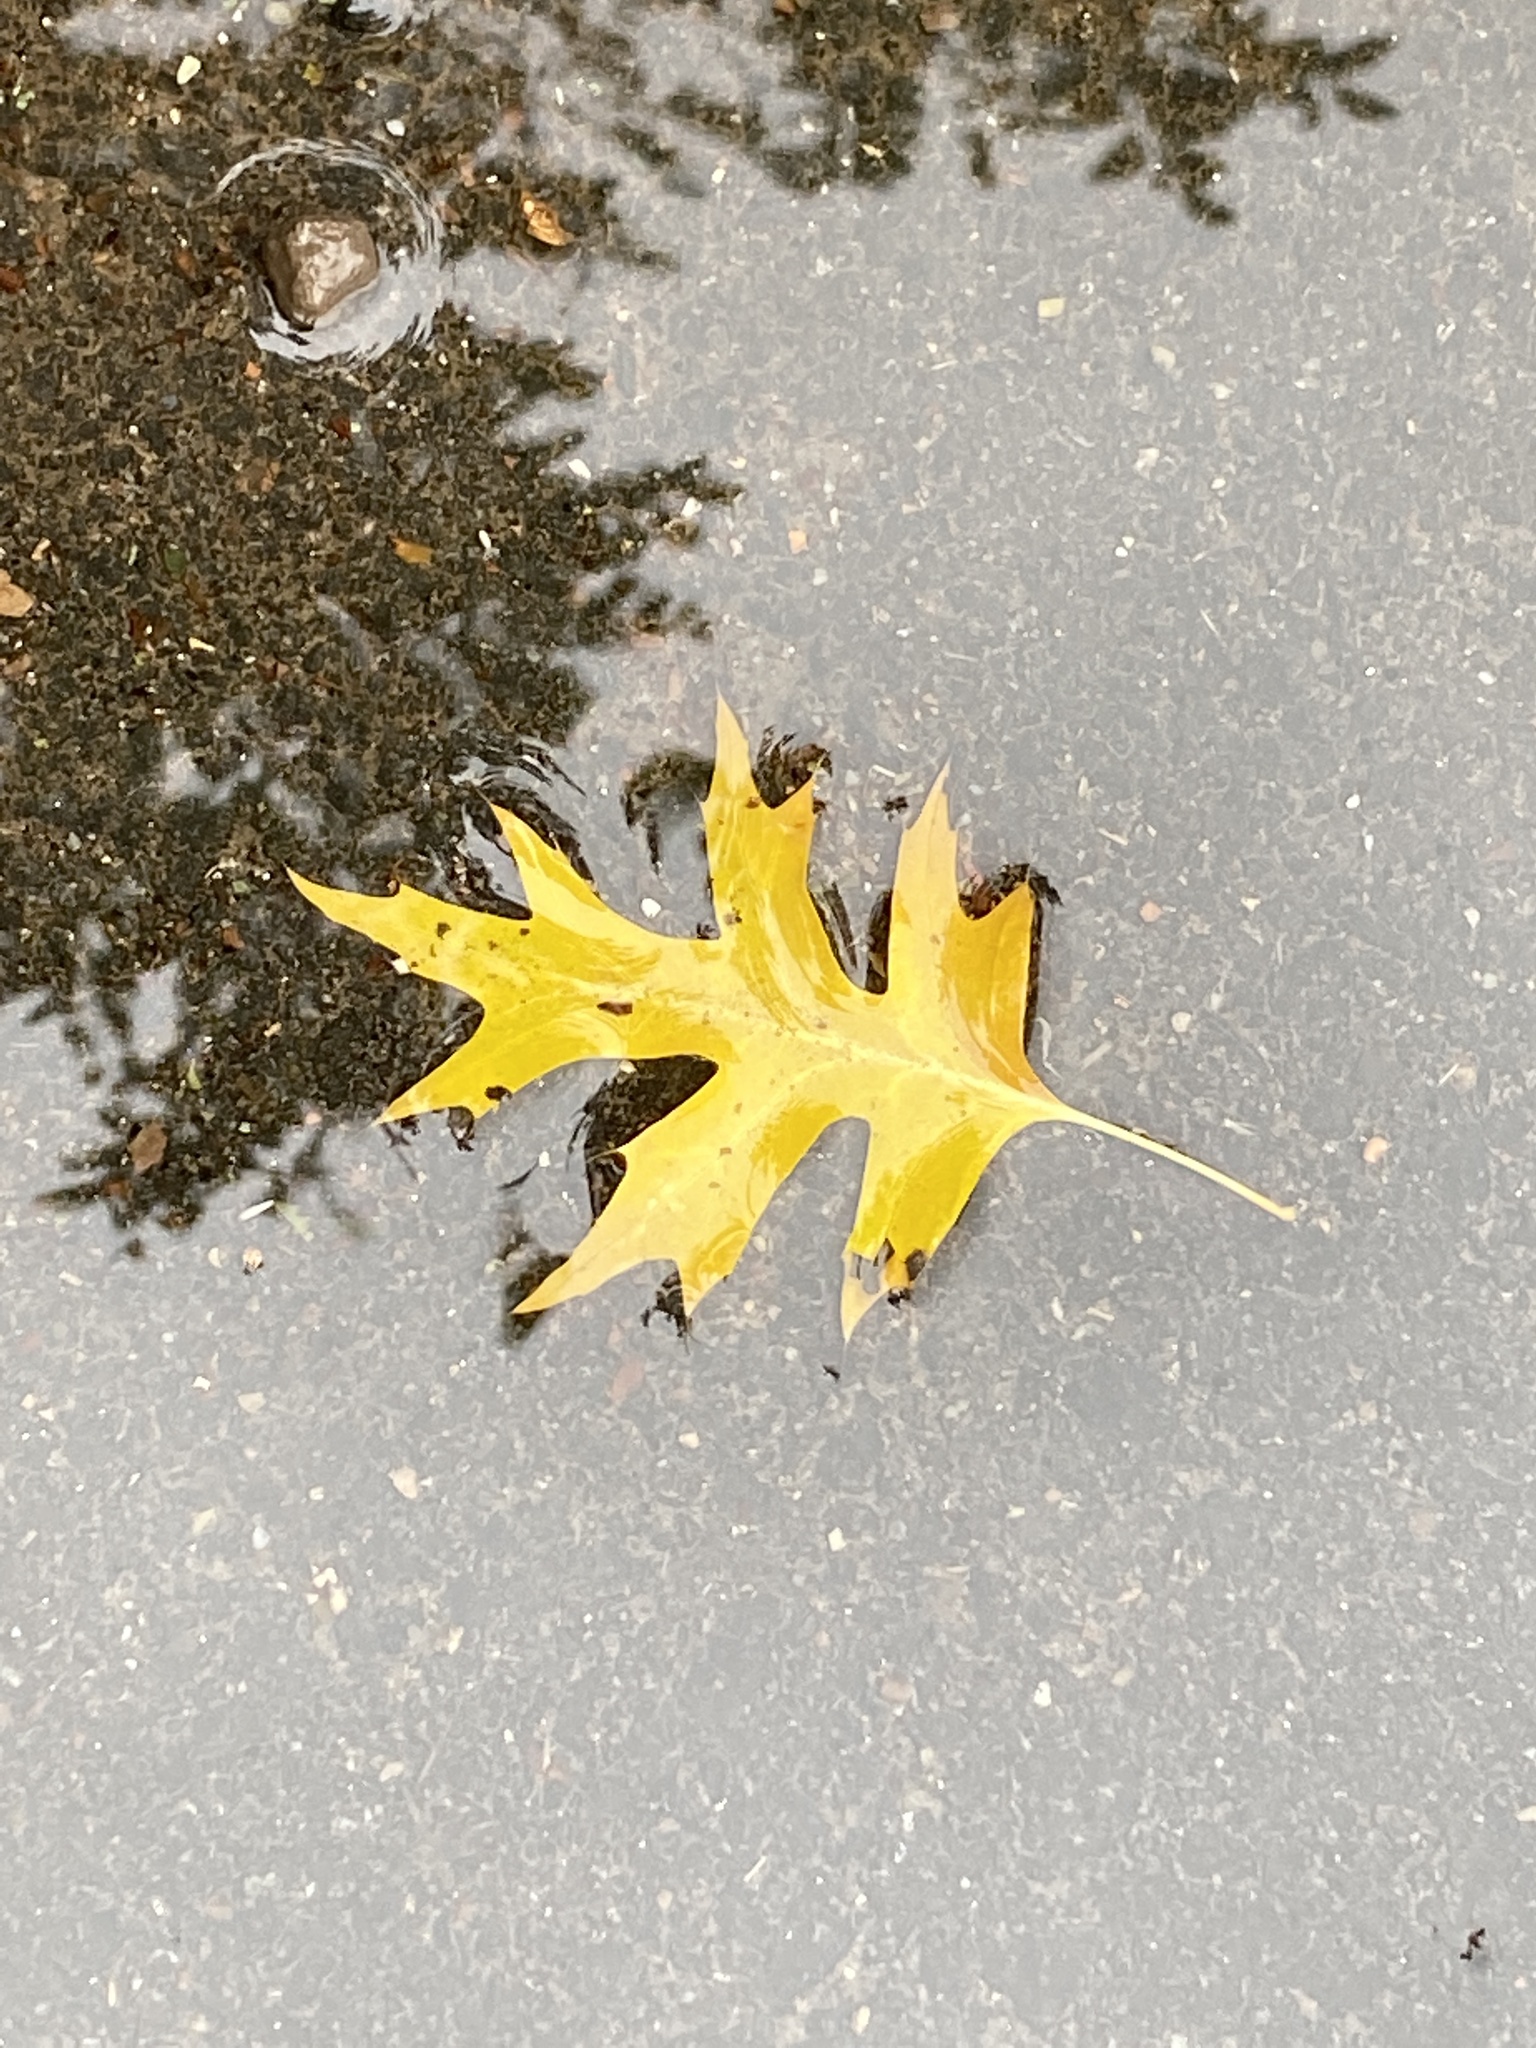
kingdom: Plantae
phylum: Tracheophyta
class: Magnoliopsida
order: Fagales
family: Fagaceae
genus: Quercus
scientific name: Quercus palustris
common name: Pin oak
